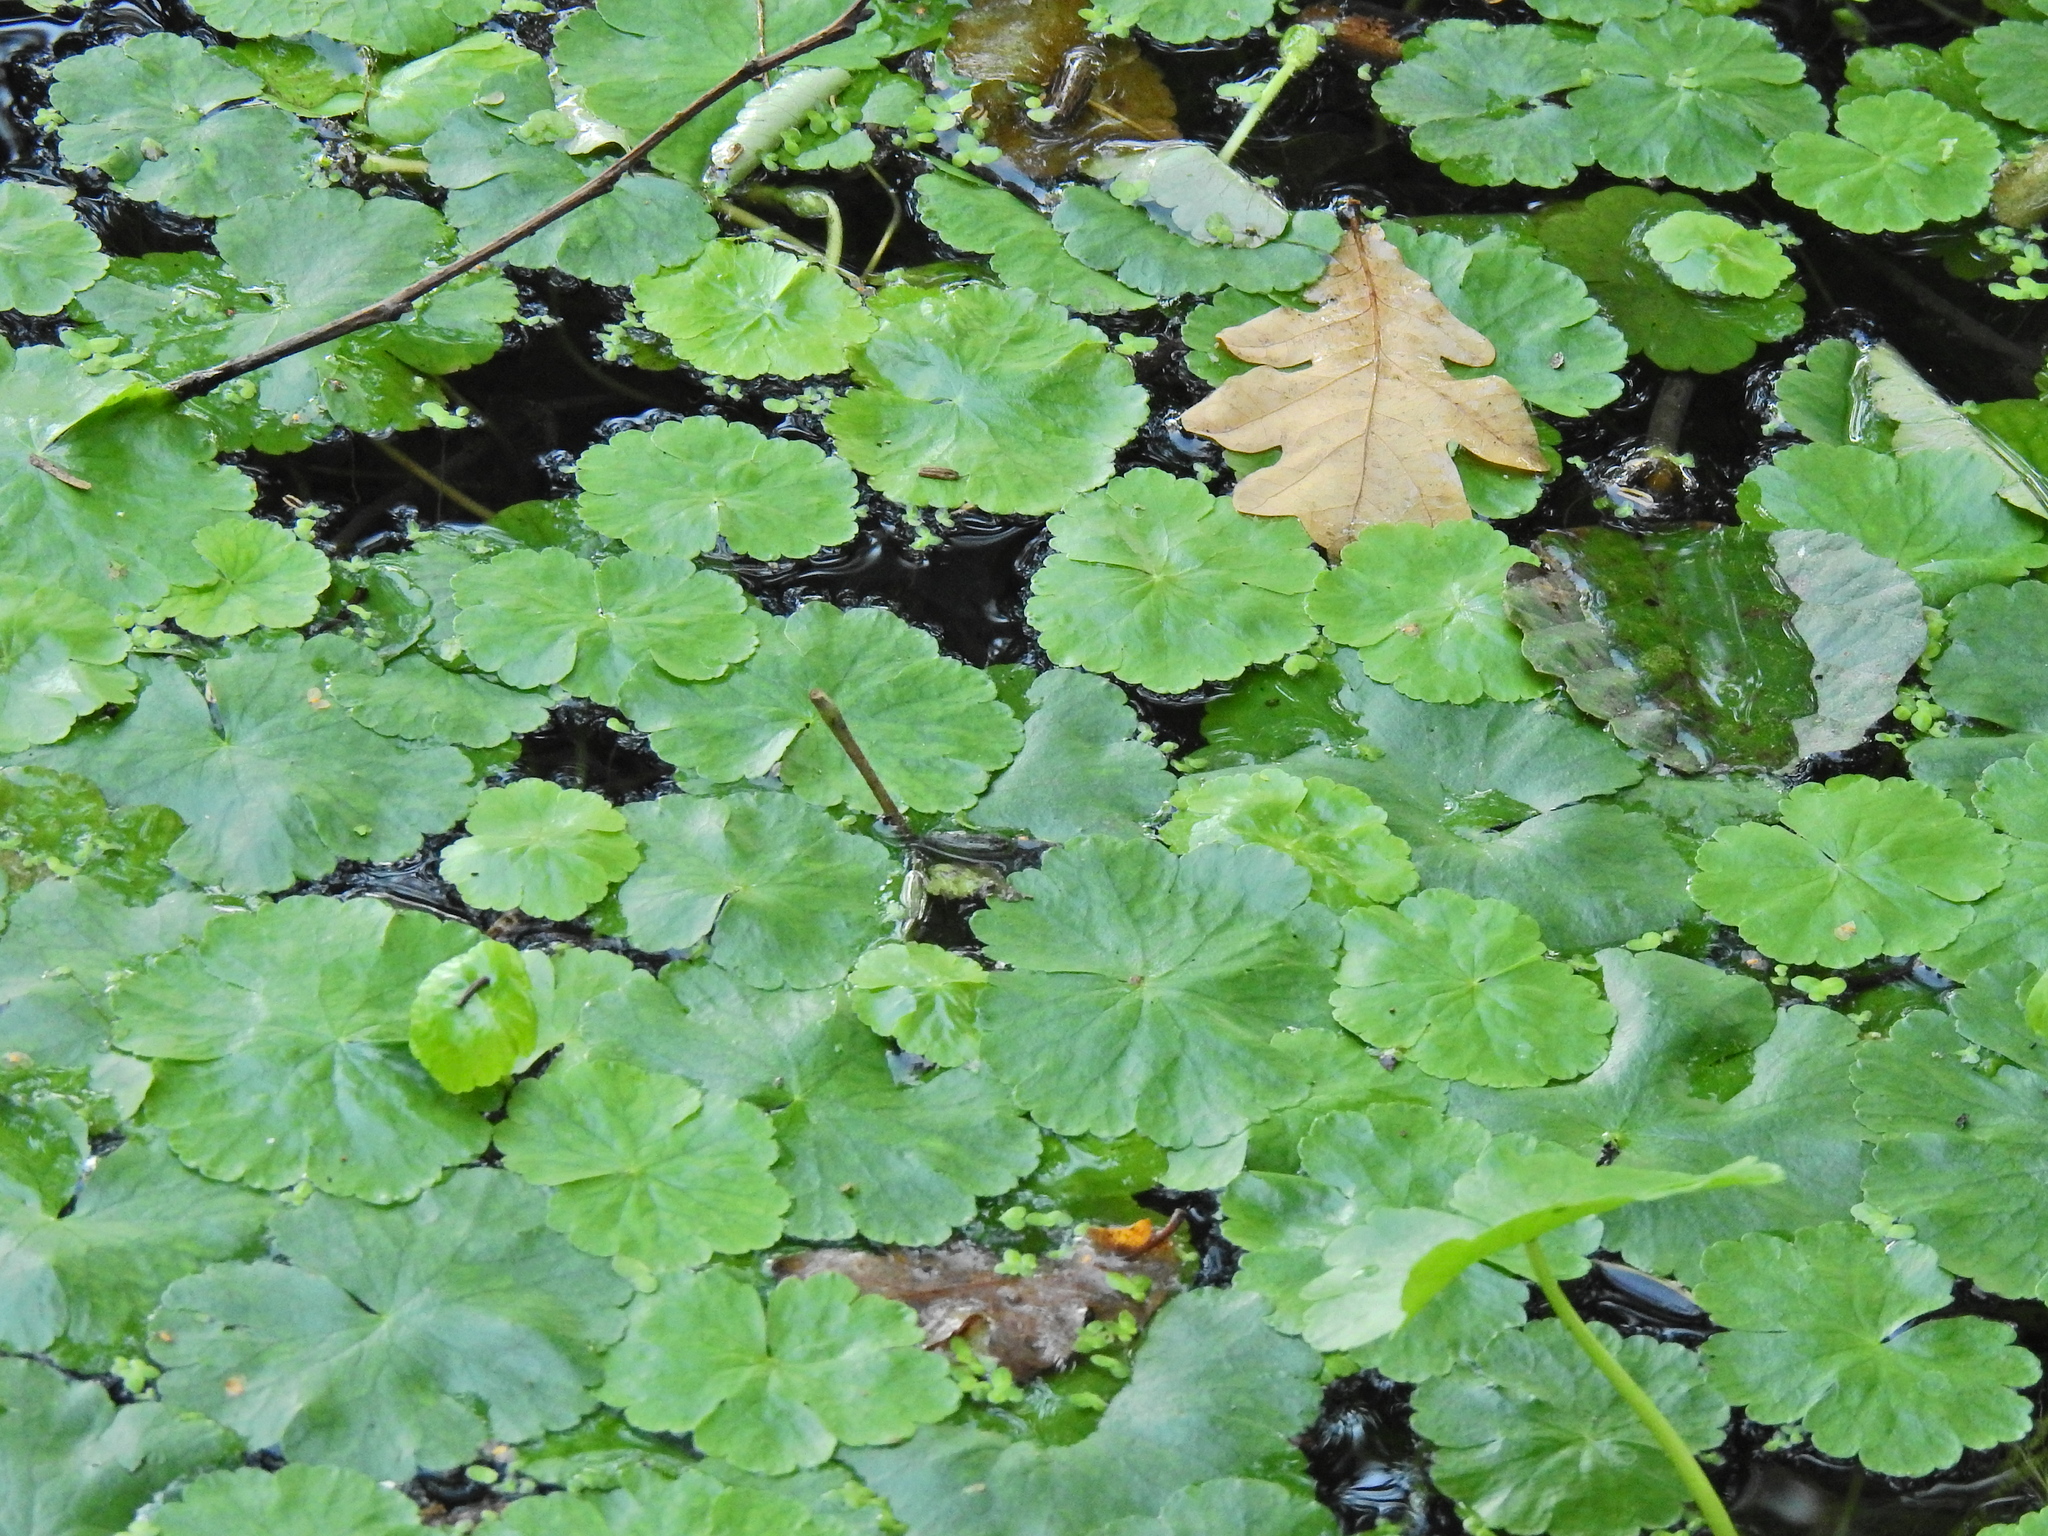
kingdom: Plantae
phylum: Tracheophyta
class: Magnoliopsida
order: Apiales
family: Araliaceae
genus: Hydrocotyle
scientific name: Hydrocotyle ranunculoides
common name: Floating pennywort
